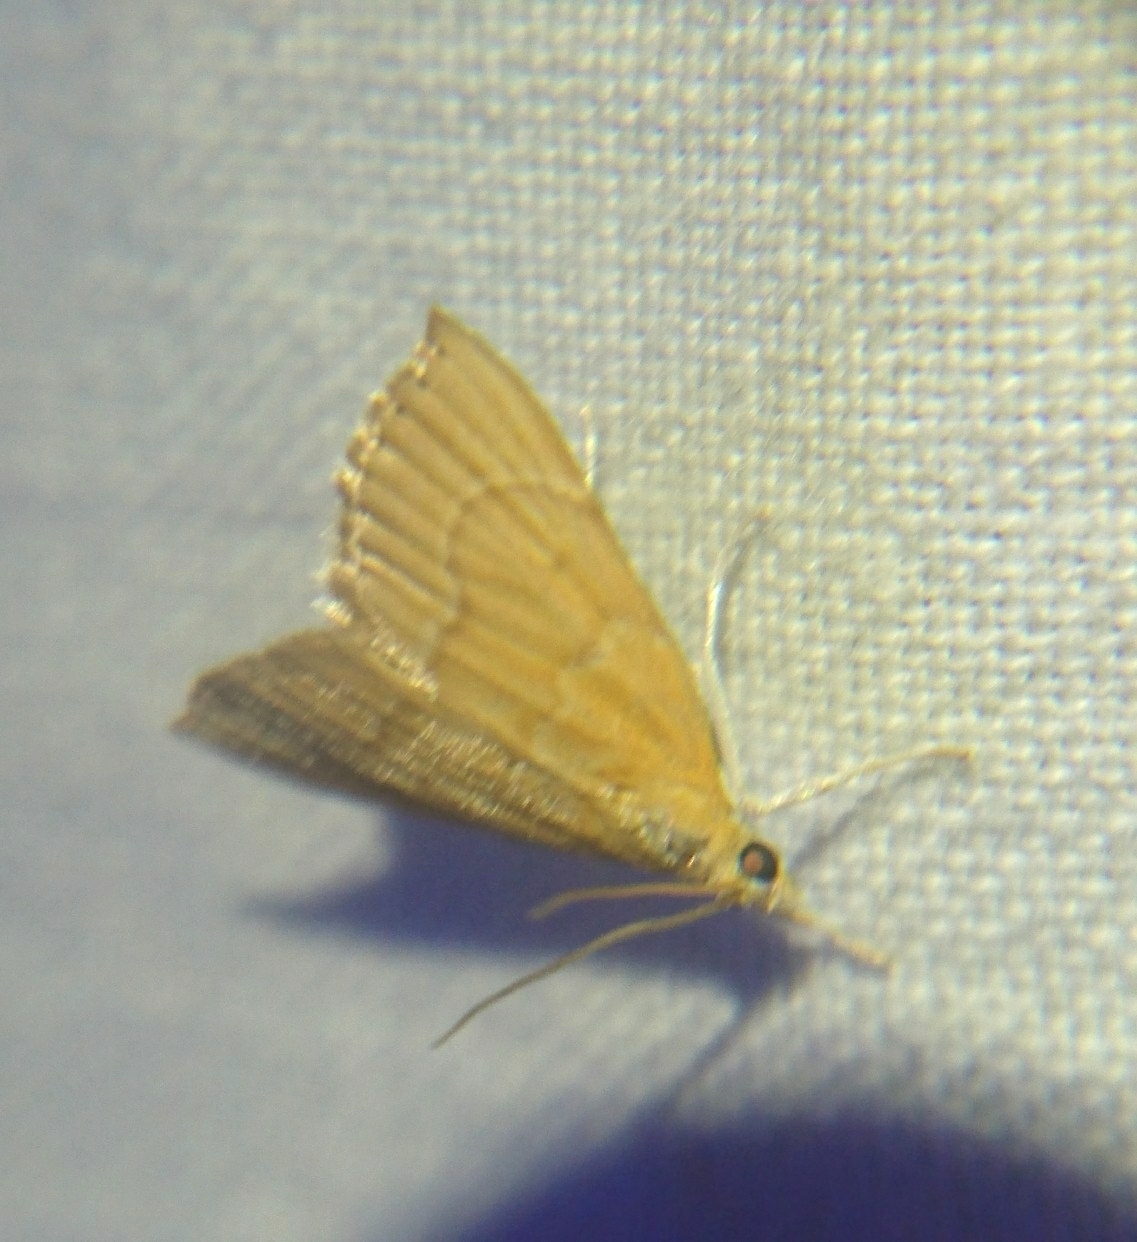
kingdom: Animalia
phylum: Arthropoda
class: Insecta
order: Lepidoptera
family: Crambidae
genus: Glaphyria
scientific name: Glaphyria invisalis
